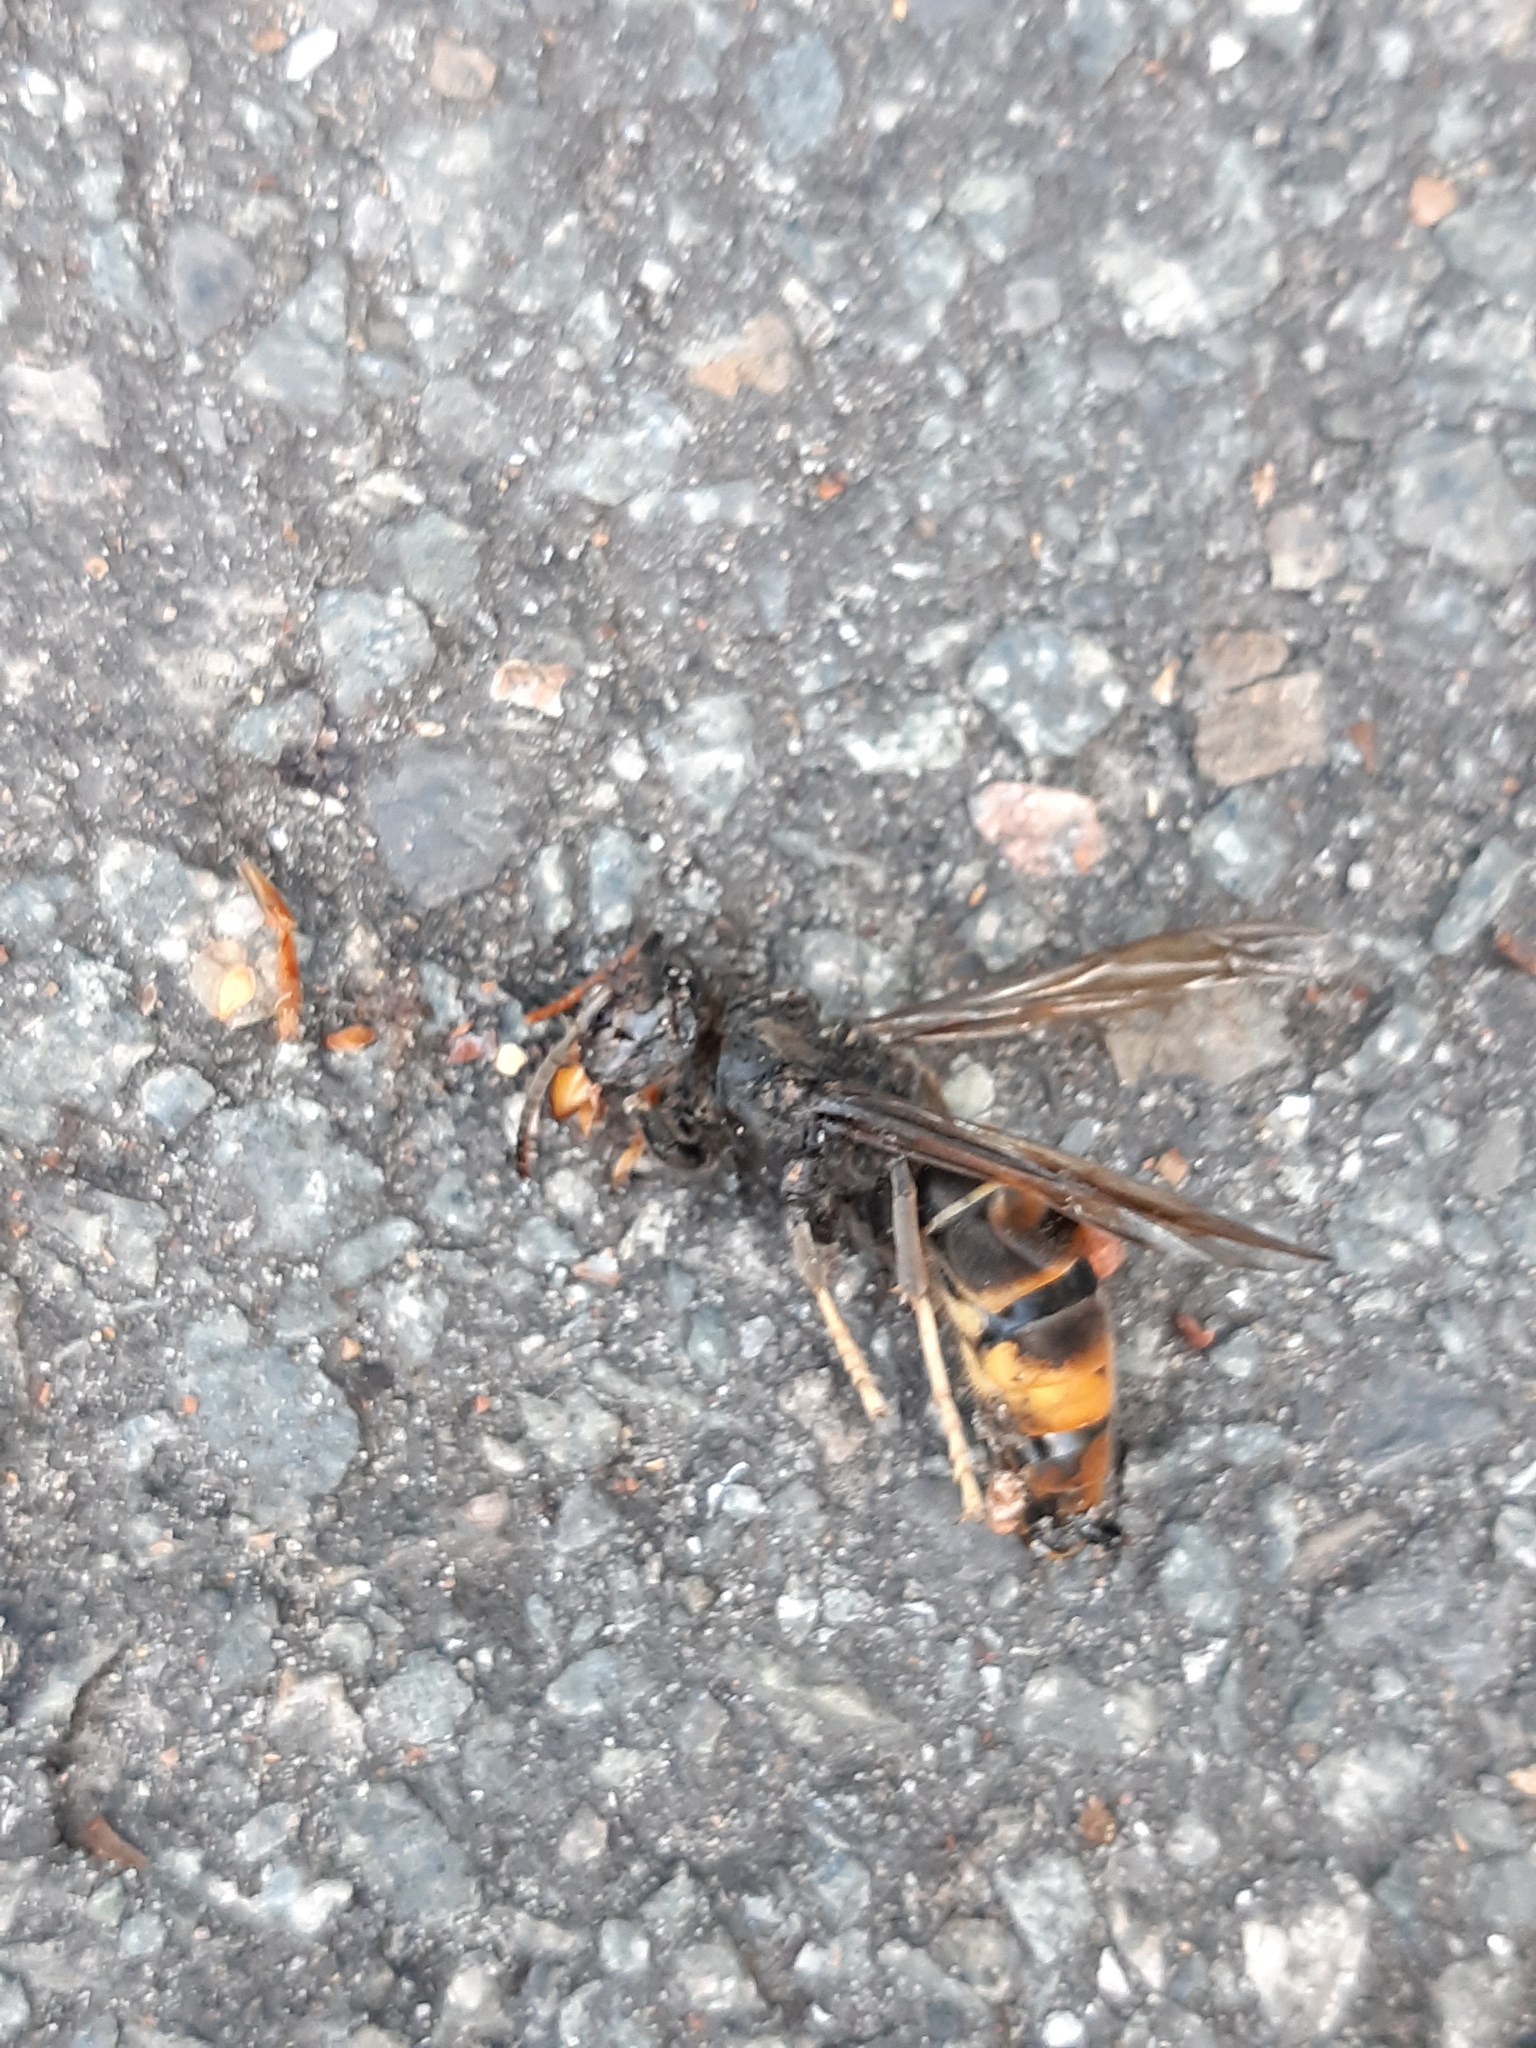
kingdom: Animalia
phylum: Arthropoda
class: Insecta
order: Hymenoptera
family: Vespidae
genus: Vespa
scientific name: Vespa velutina
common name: Asian hornet
